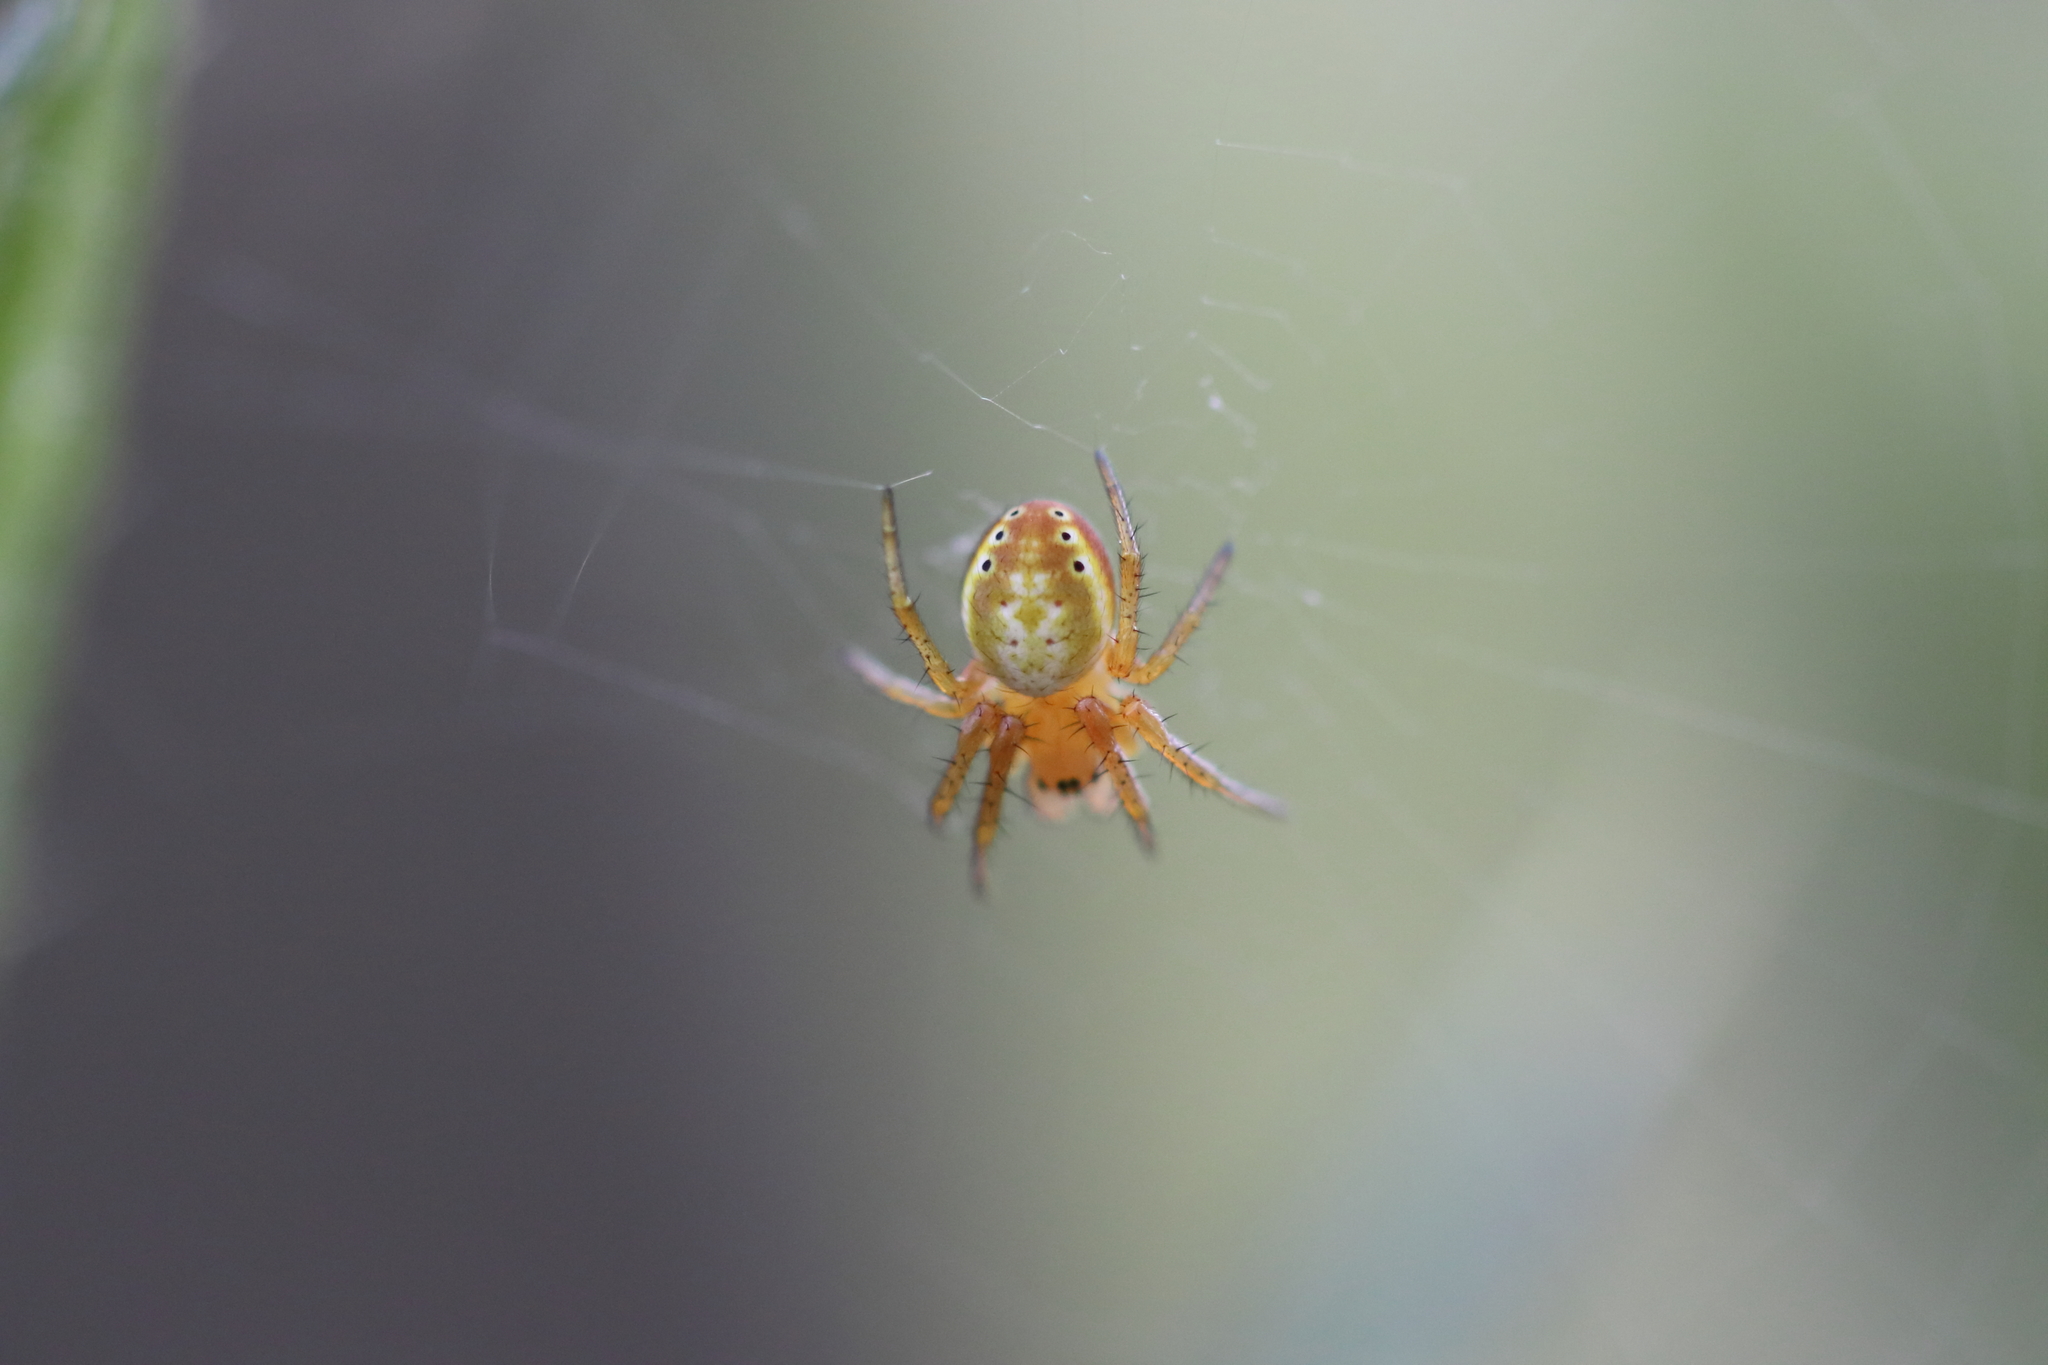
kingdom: Animalia
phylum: Arthropoda
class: Arachnida
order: Araneae
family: Araneidae
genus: Araniella
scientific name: Araniella displicata
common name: Sixspotted orb weaver
